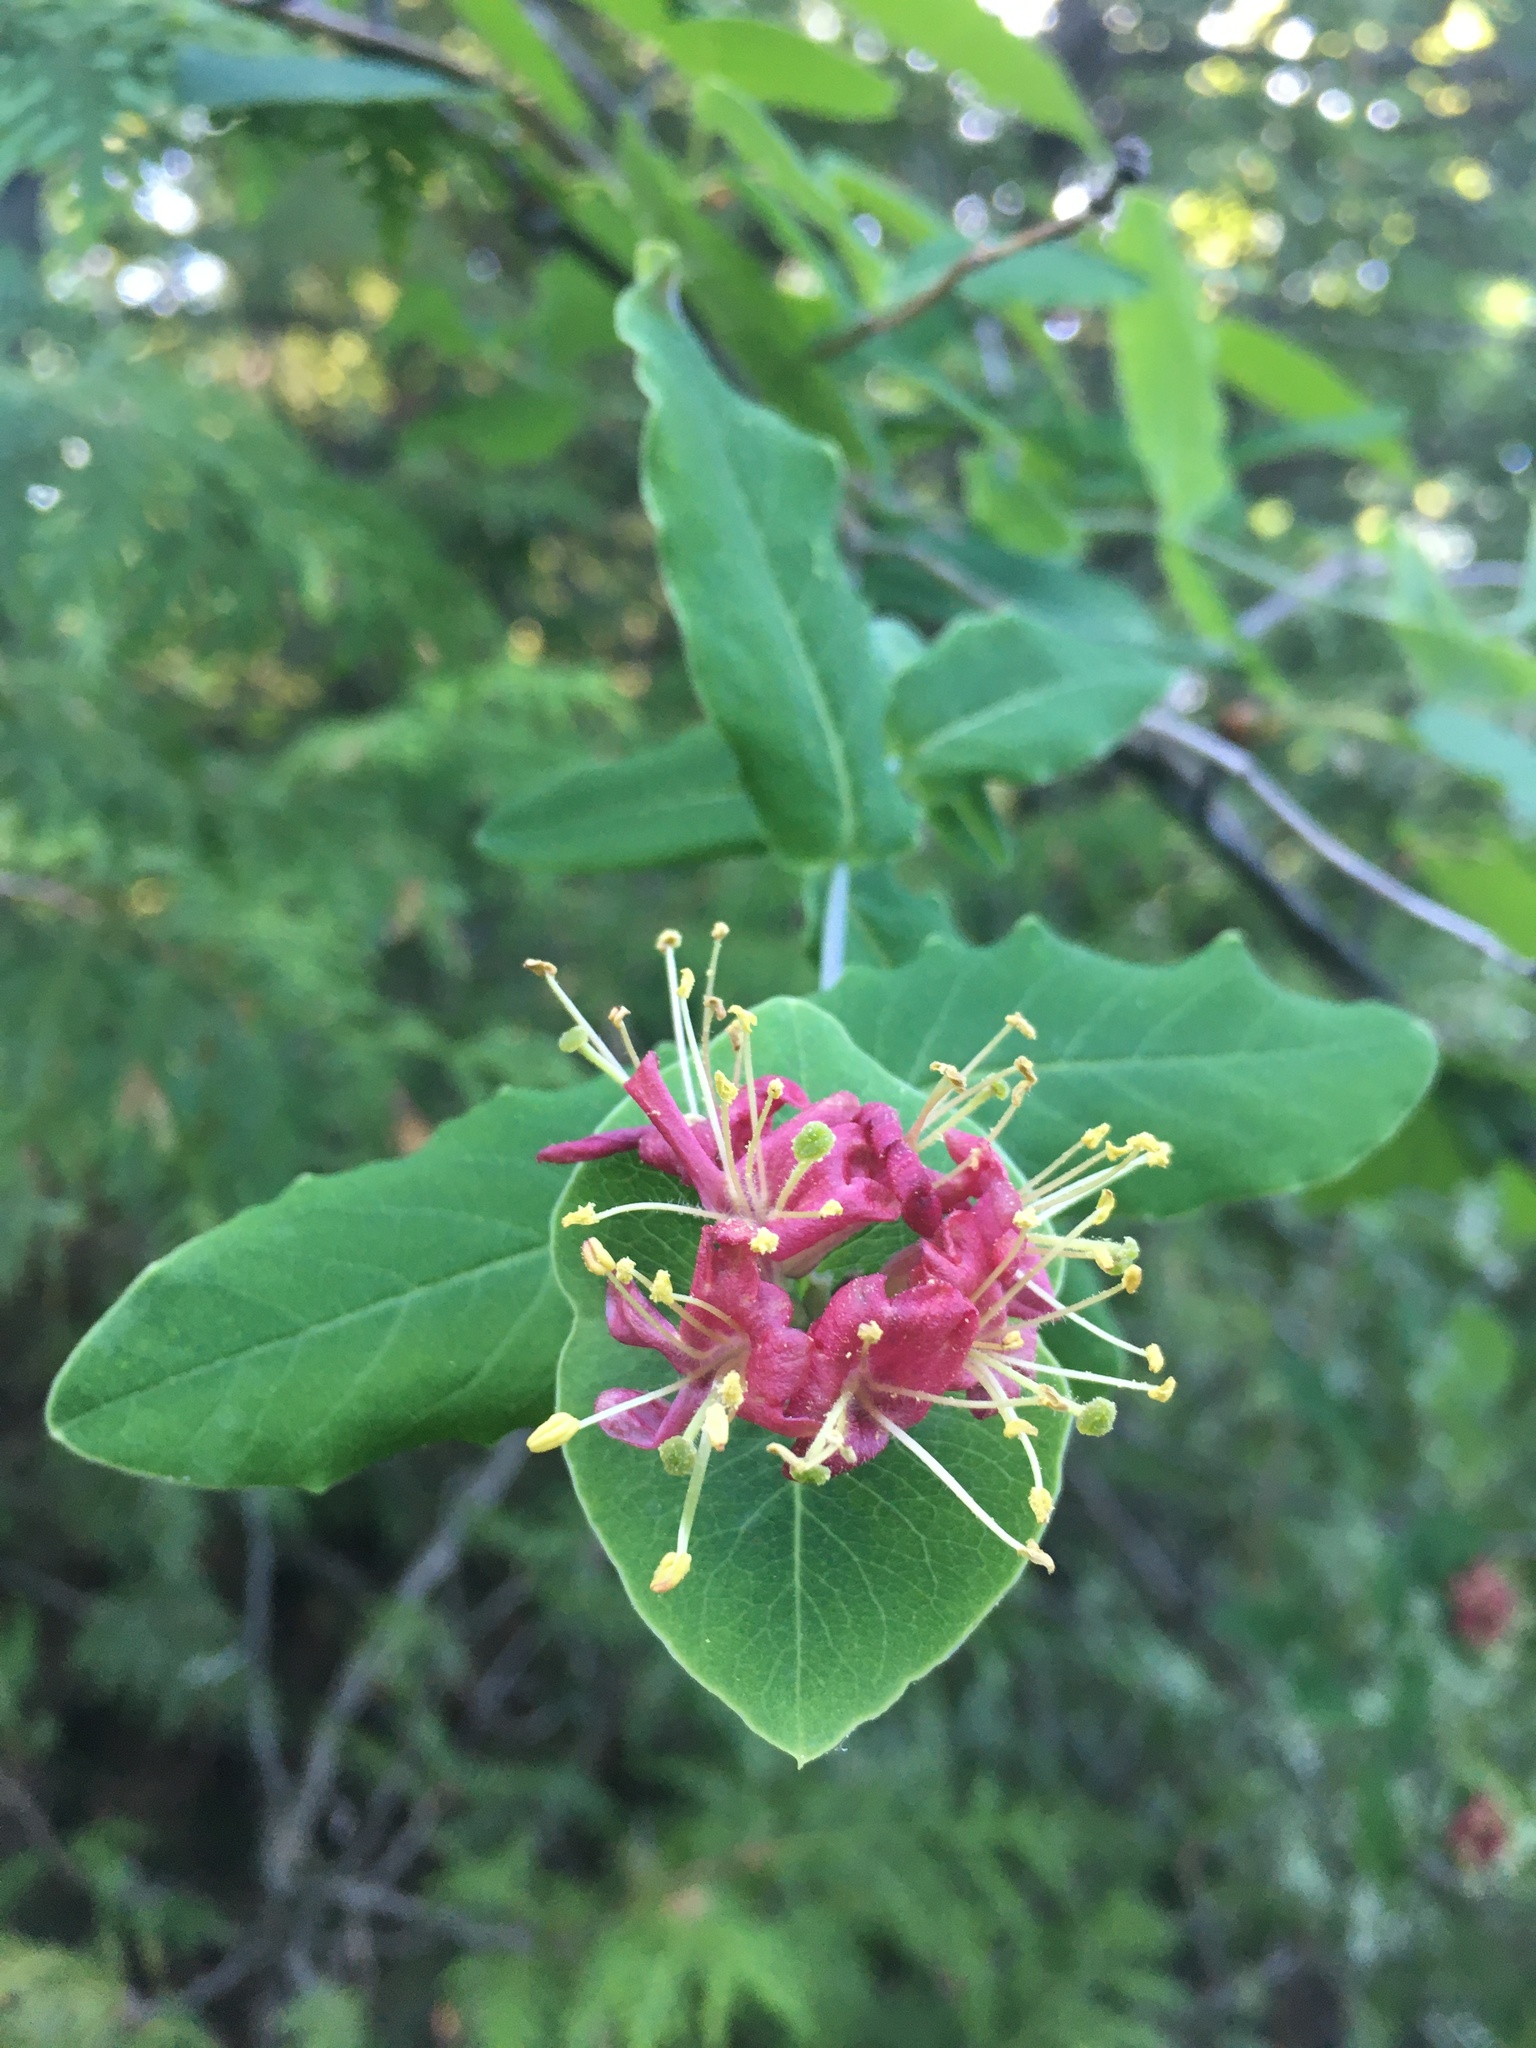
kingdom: Plantae
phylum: Tracheophyta
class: Magnoliopsida
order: Dipsacales
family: Caprifoliaceae
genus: Lonicera
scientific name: Lonicera dioica
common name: Limber honeysuckle
